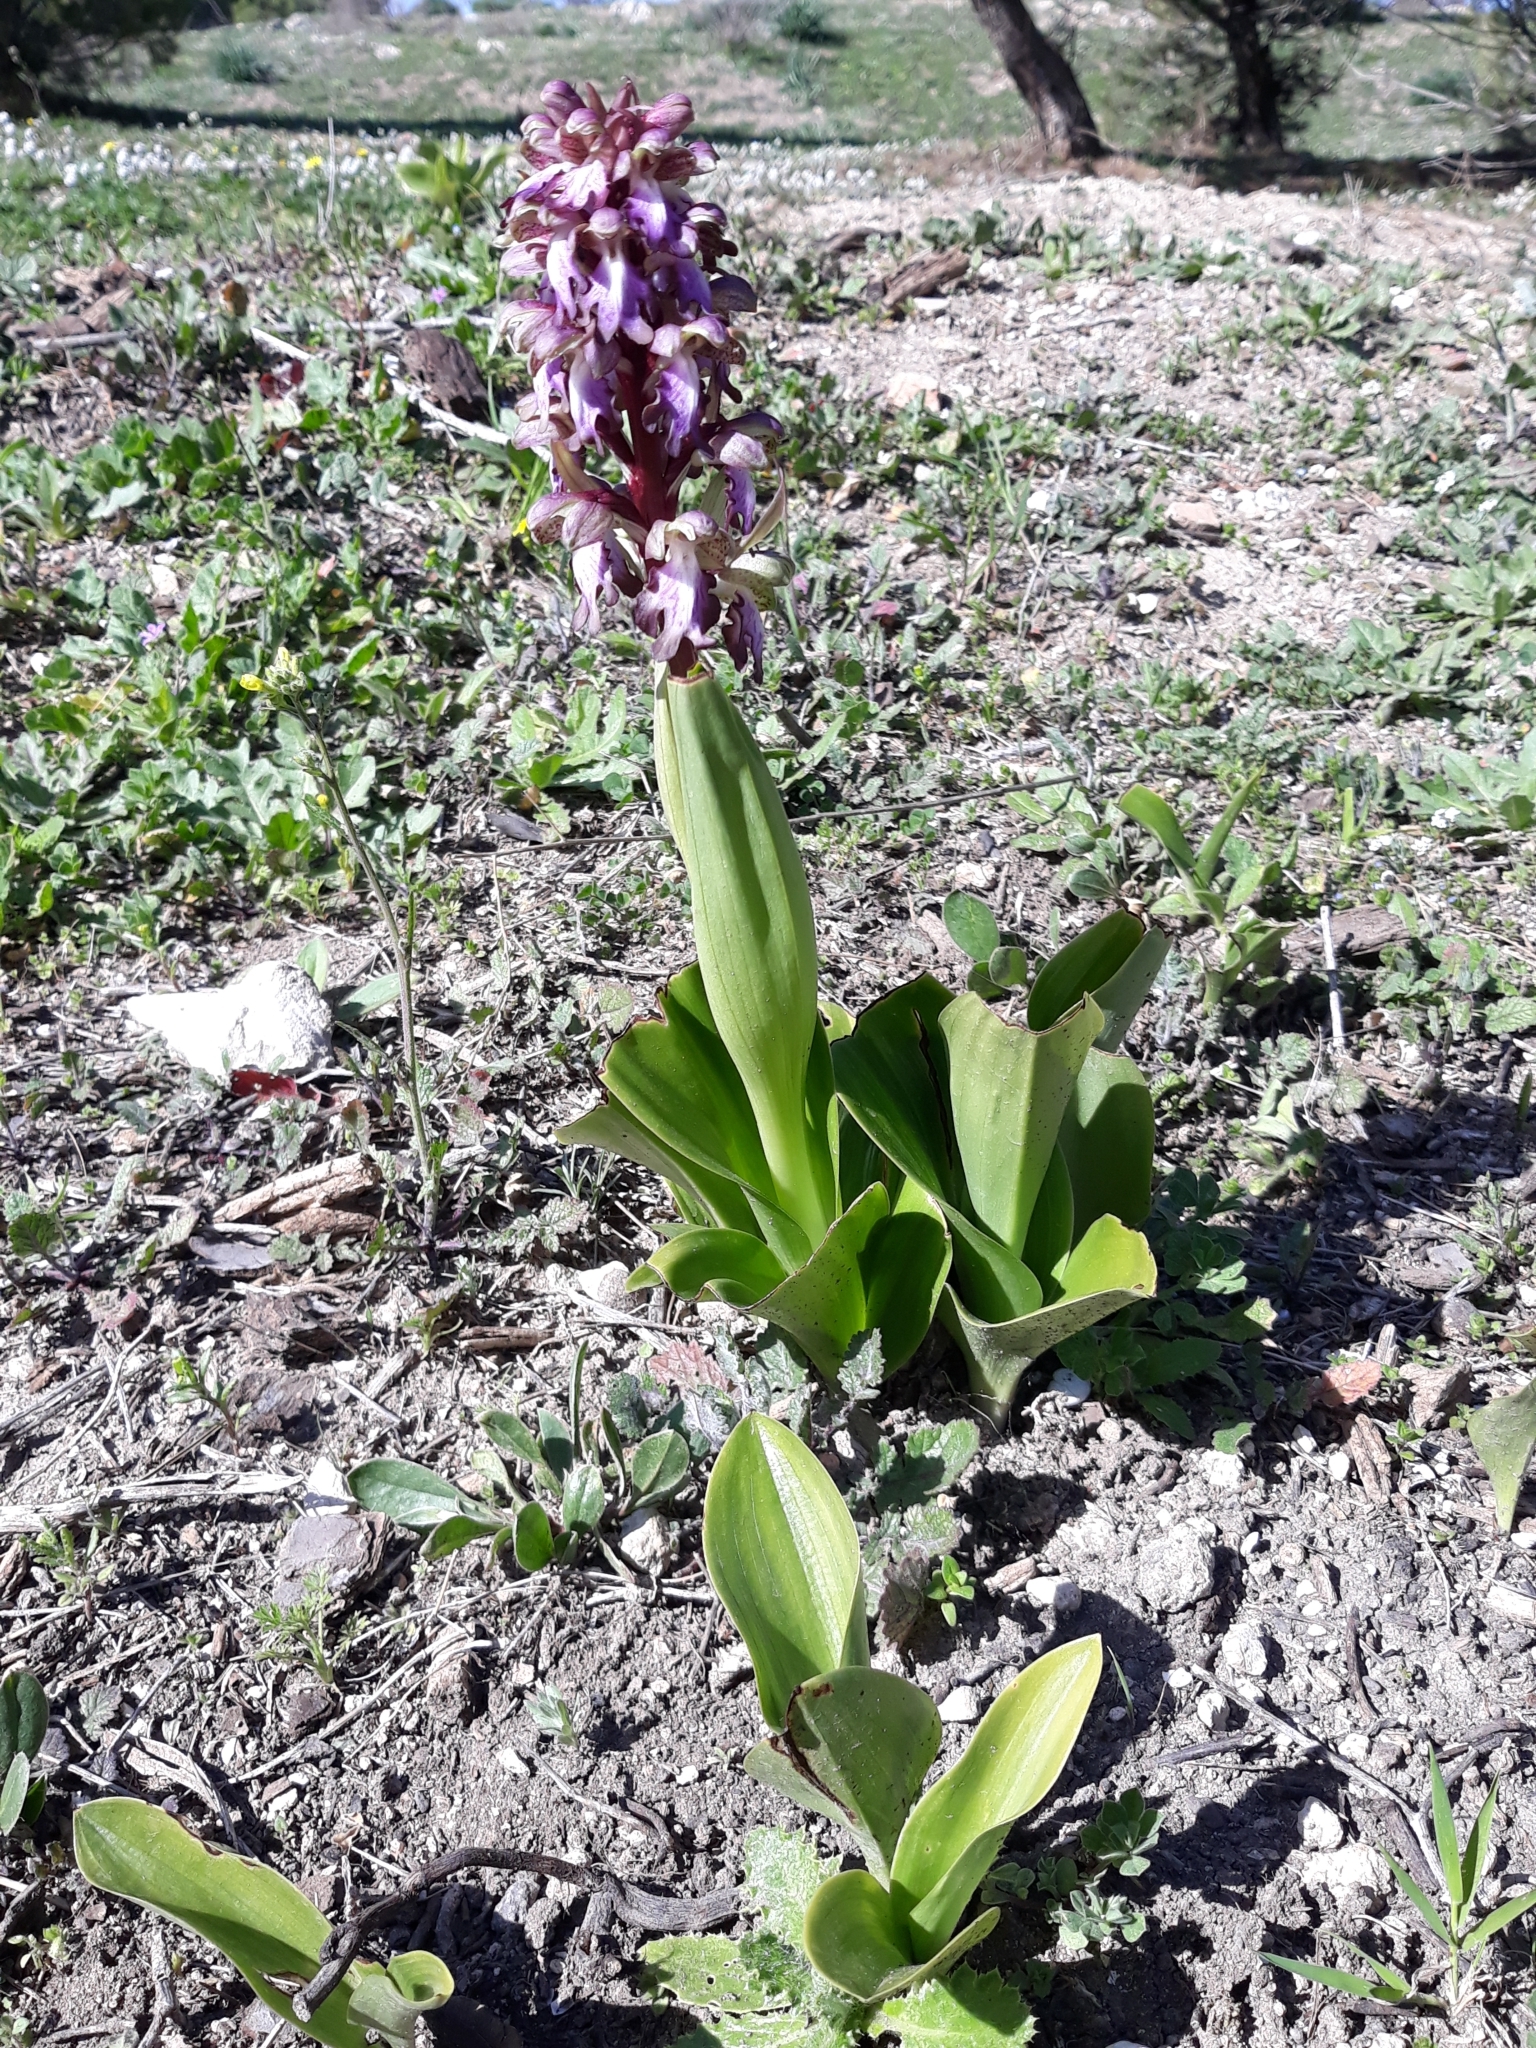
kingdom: Plantae
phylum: Tracheophyta
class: Liliopsida
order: Asparagales
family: Orchidaceae
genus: Himantoglossum
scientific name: Himantoglossum robertianum
